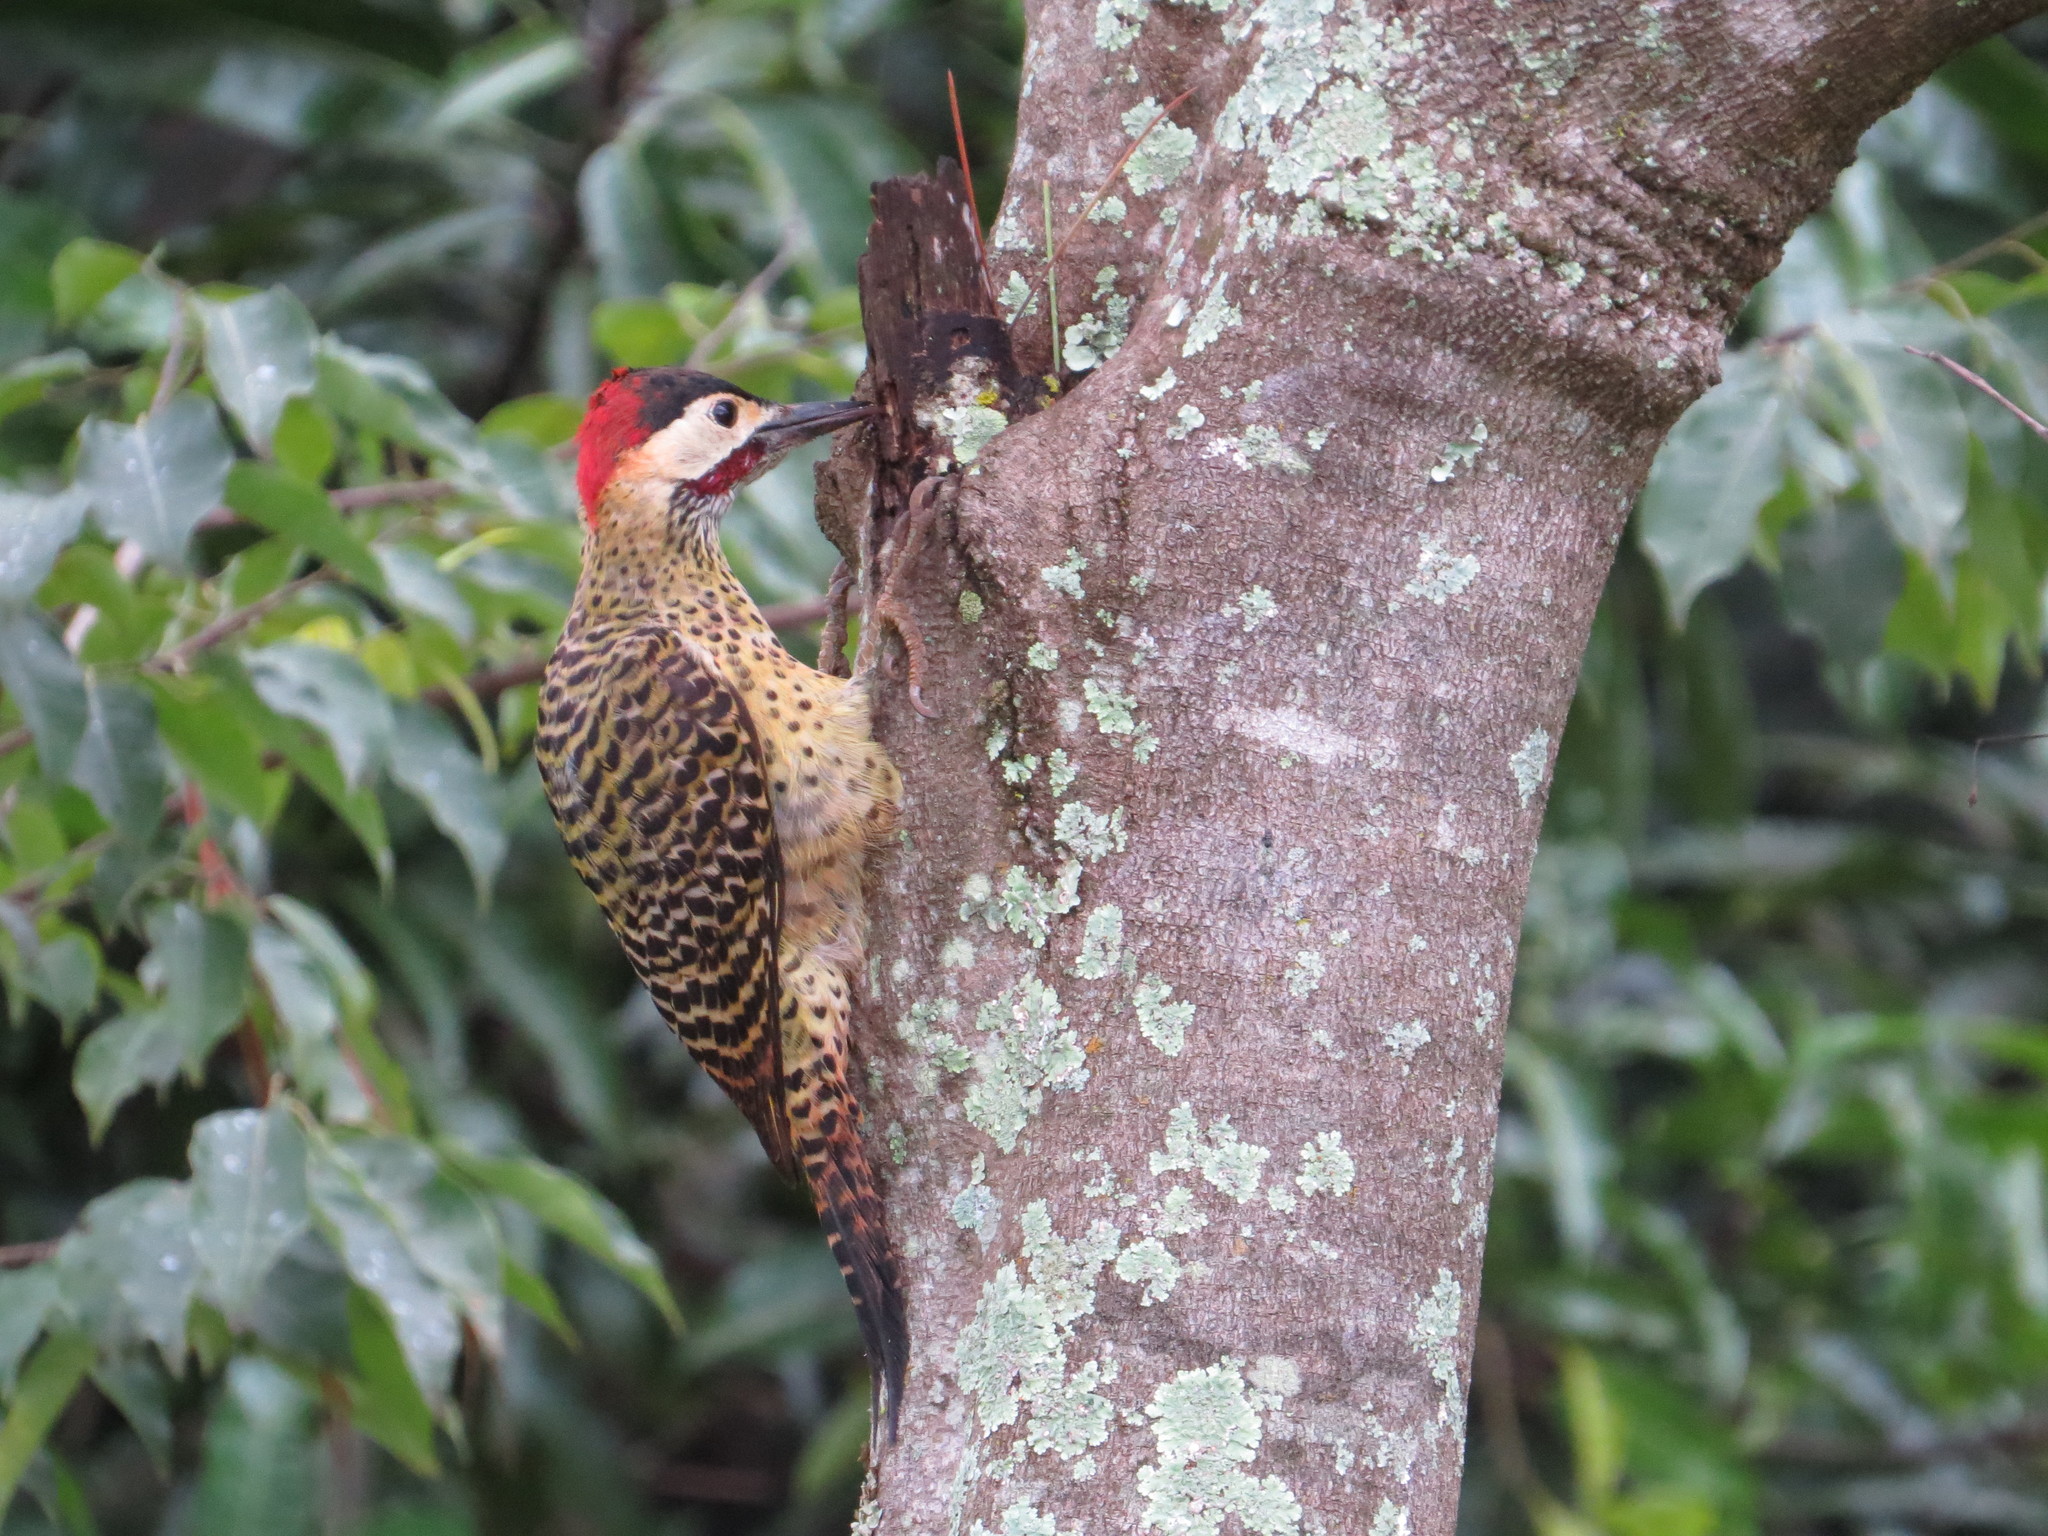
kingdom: Animalia
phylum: Chordata
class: Aves
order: Piciformes
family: Picidae
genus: Colaptes
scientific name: Colaptes melanochloros
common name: Green-barred woodpecker
